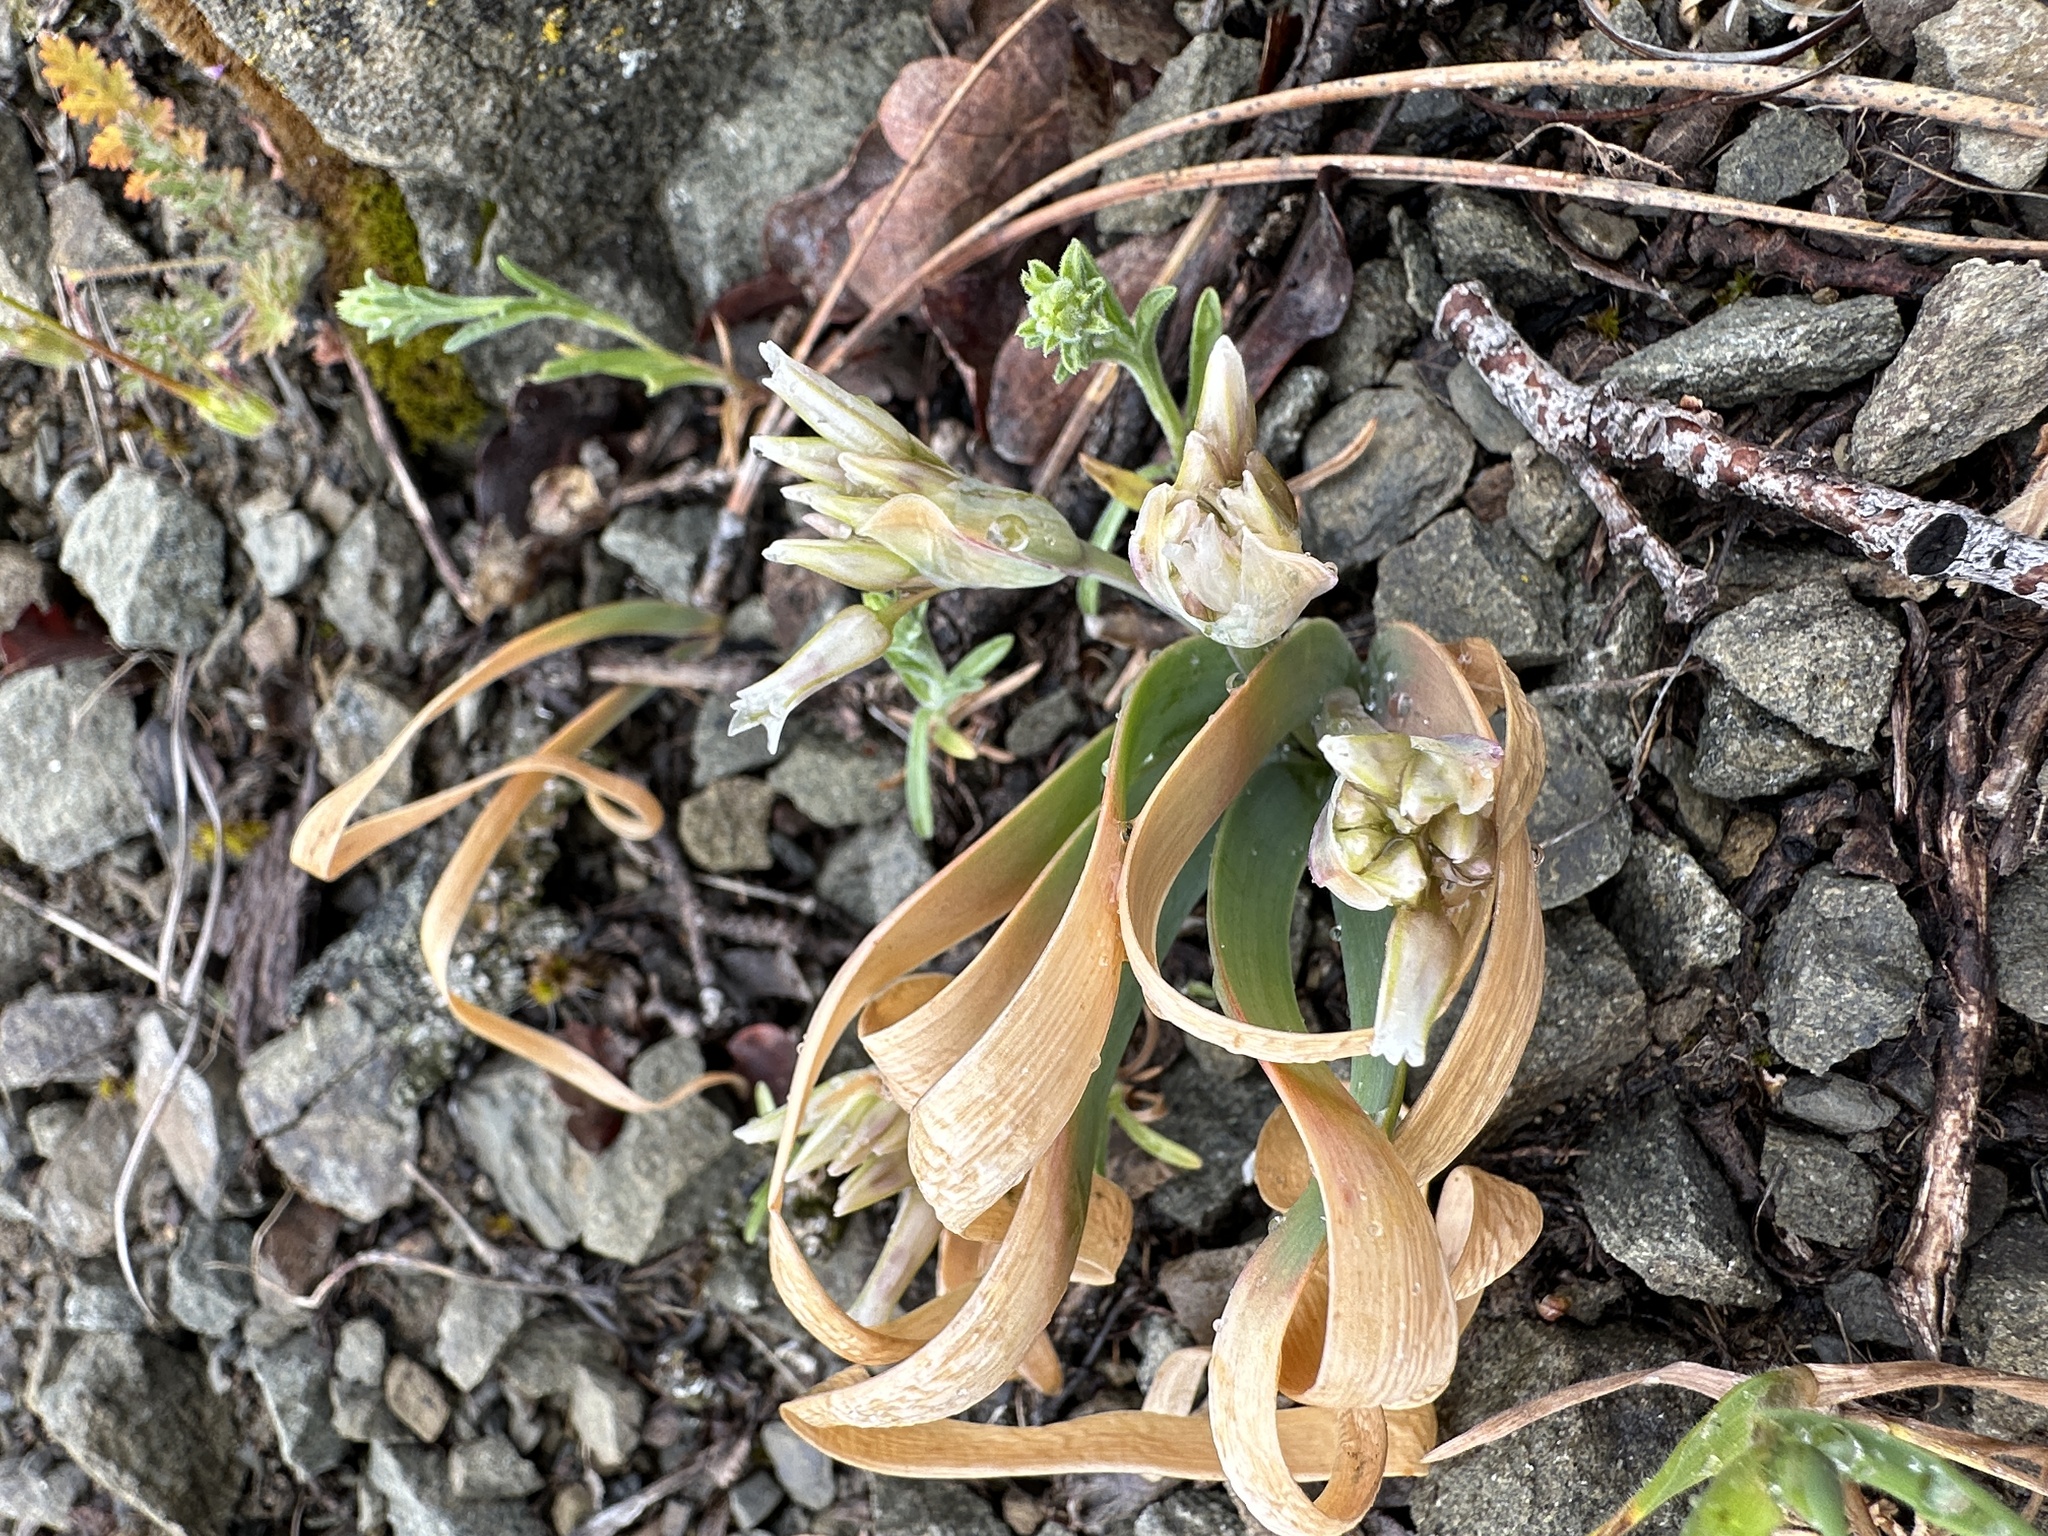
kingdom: Plantae
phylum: Tracheophyta
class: Liliopsida
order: Asparagales
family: Amaryllidaceae
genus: Allium
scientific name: Allium falcifolium
